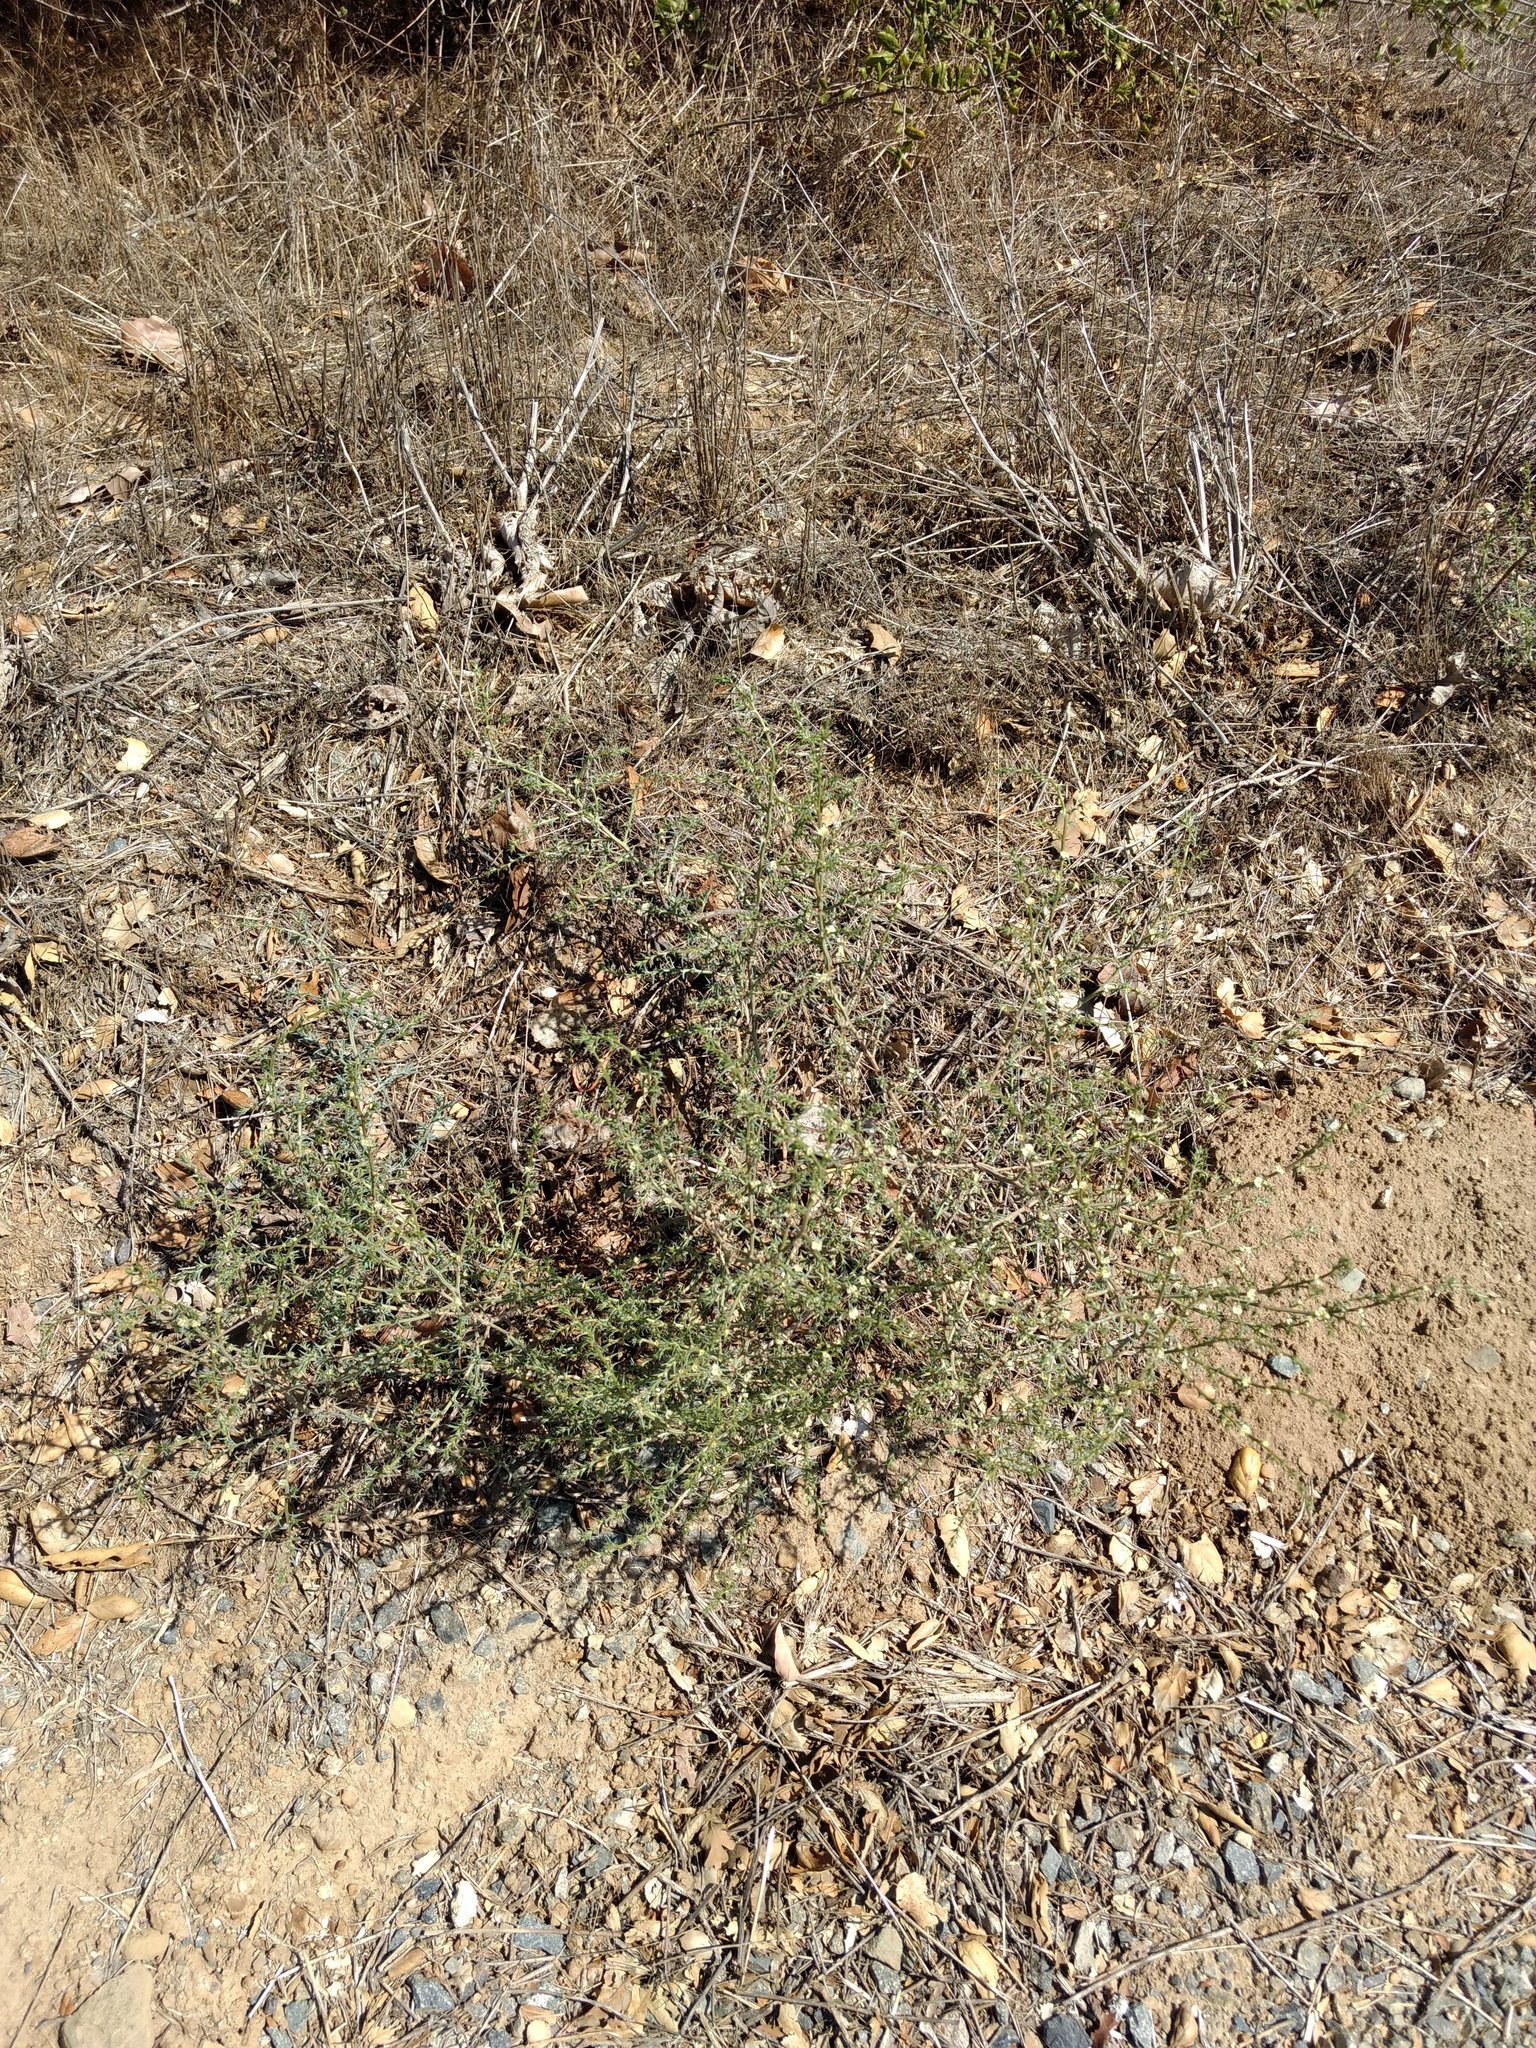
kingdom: Plantae
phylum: Tracheophyta
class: Magnoliopsida
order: Caryophyllales
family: Amaranthaceae
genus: Salsola
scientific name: Salsola australis
